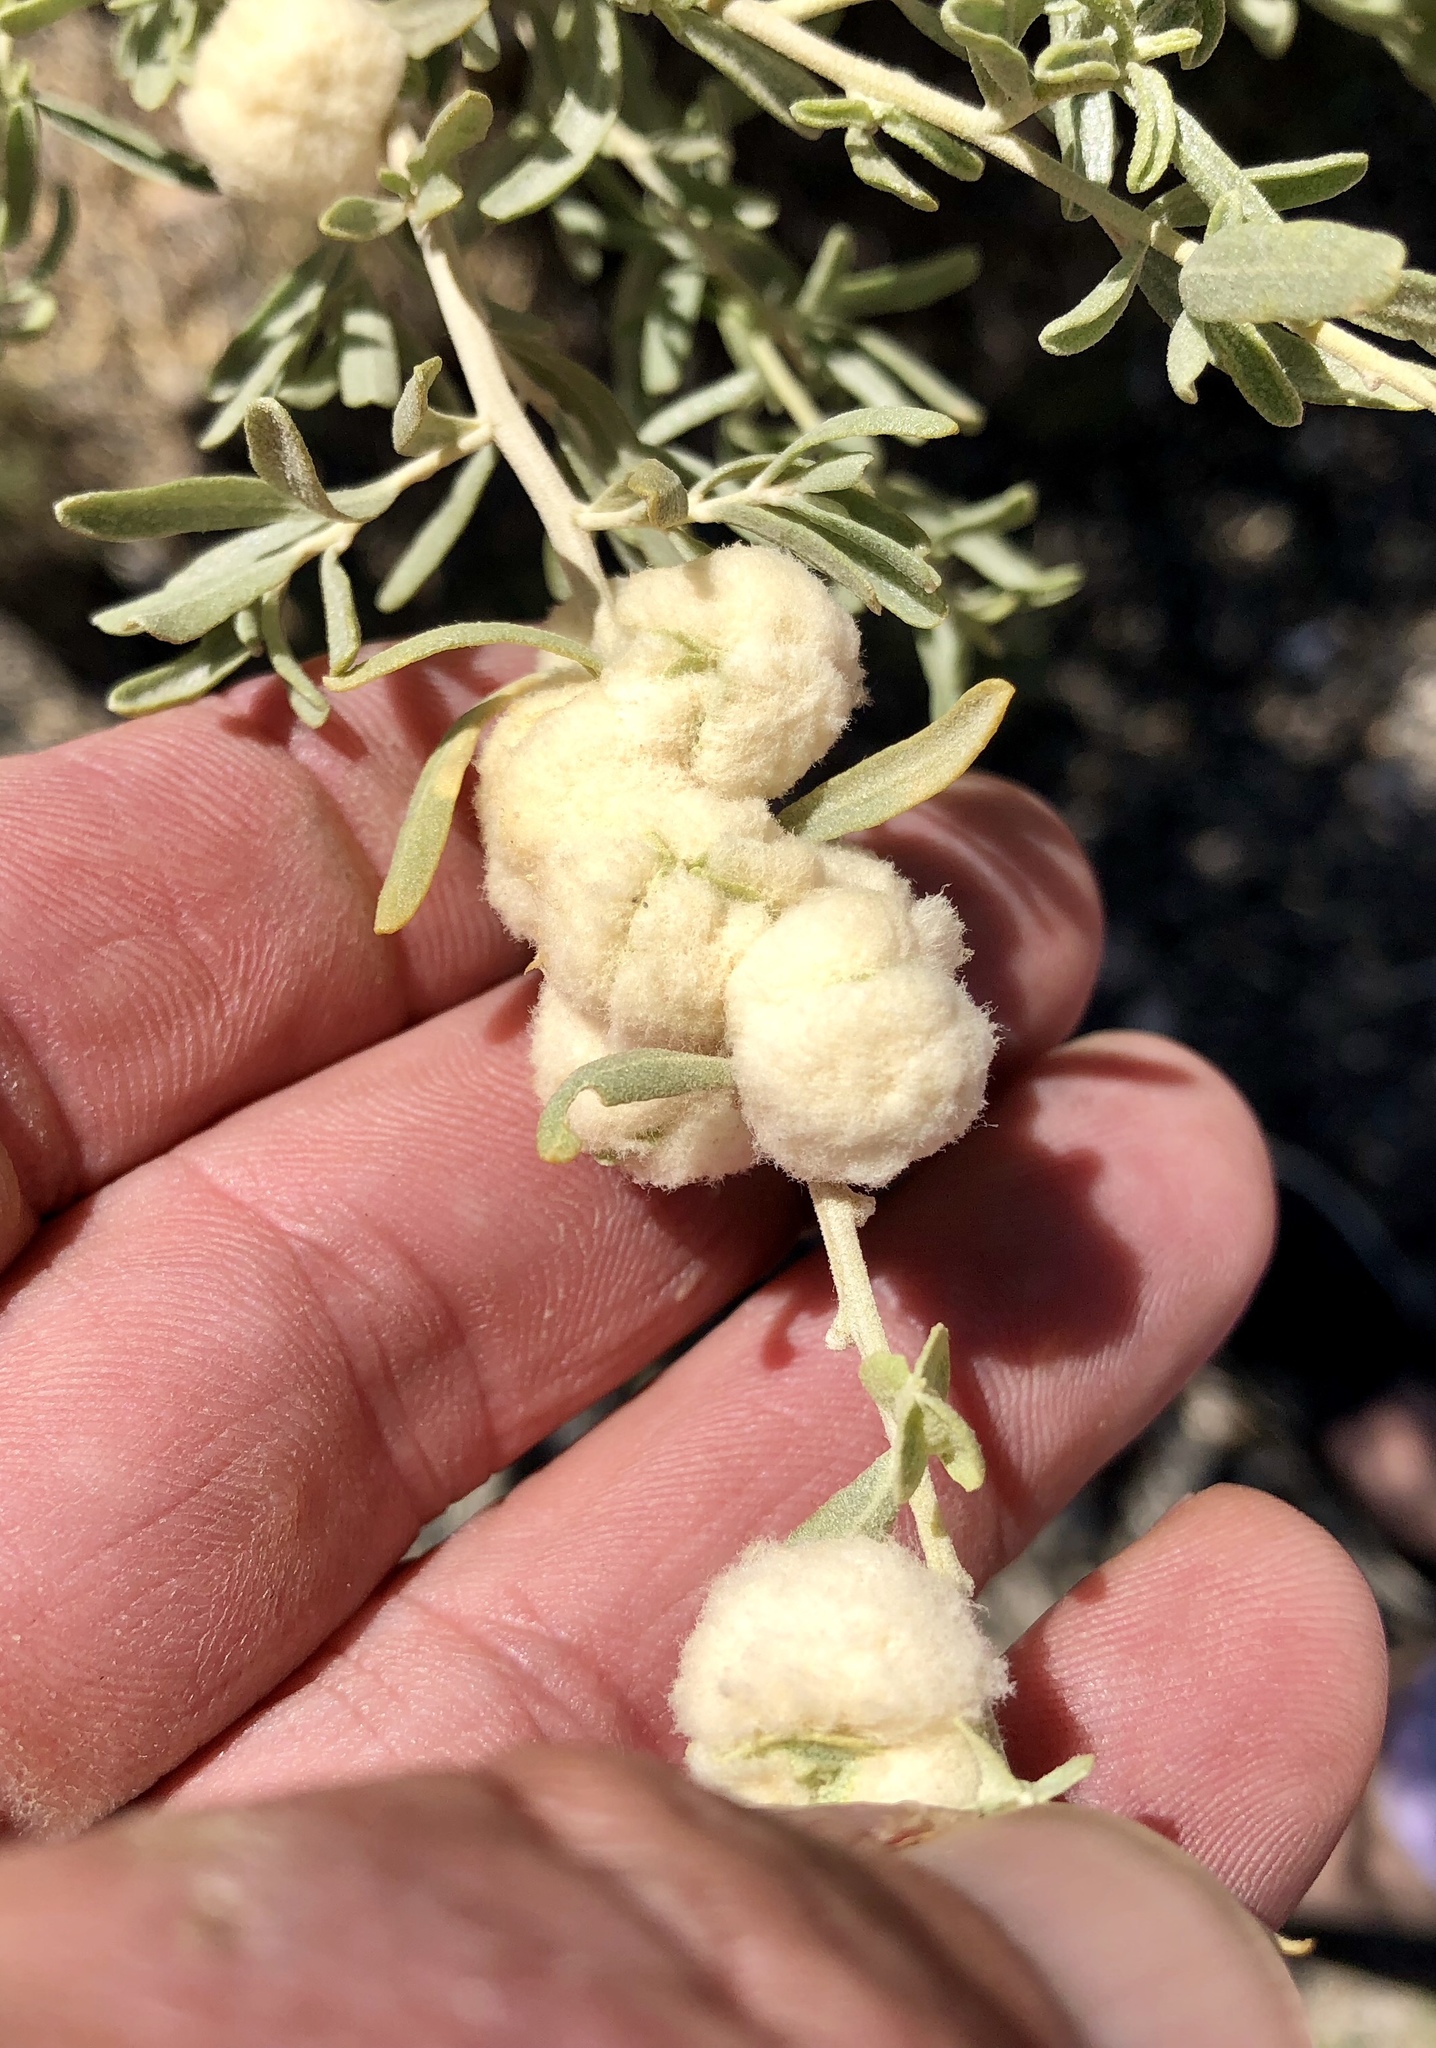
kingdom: Animalia
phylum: Arthropoda
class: Insecta
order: Diptera
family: Cecidomyiidae
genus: Asphondylia
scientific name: Asphondylia neomexicana
